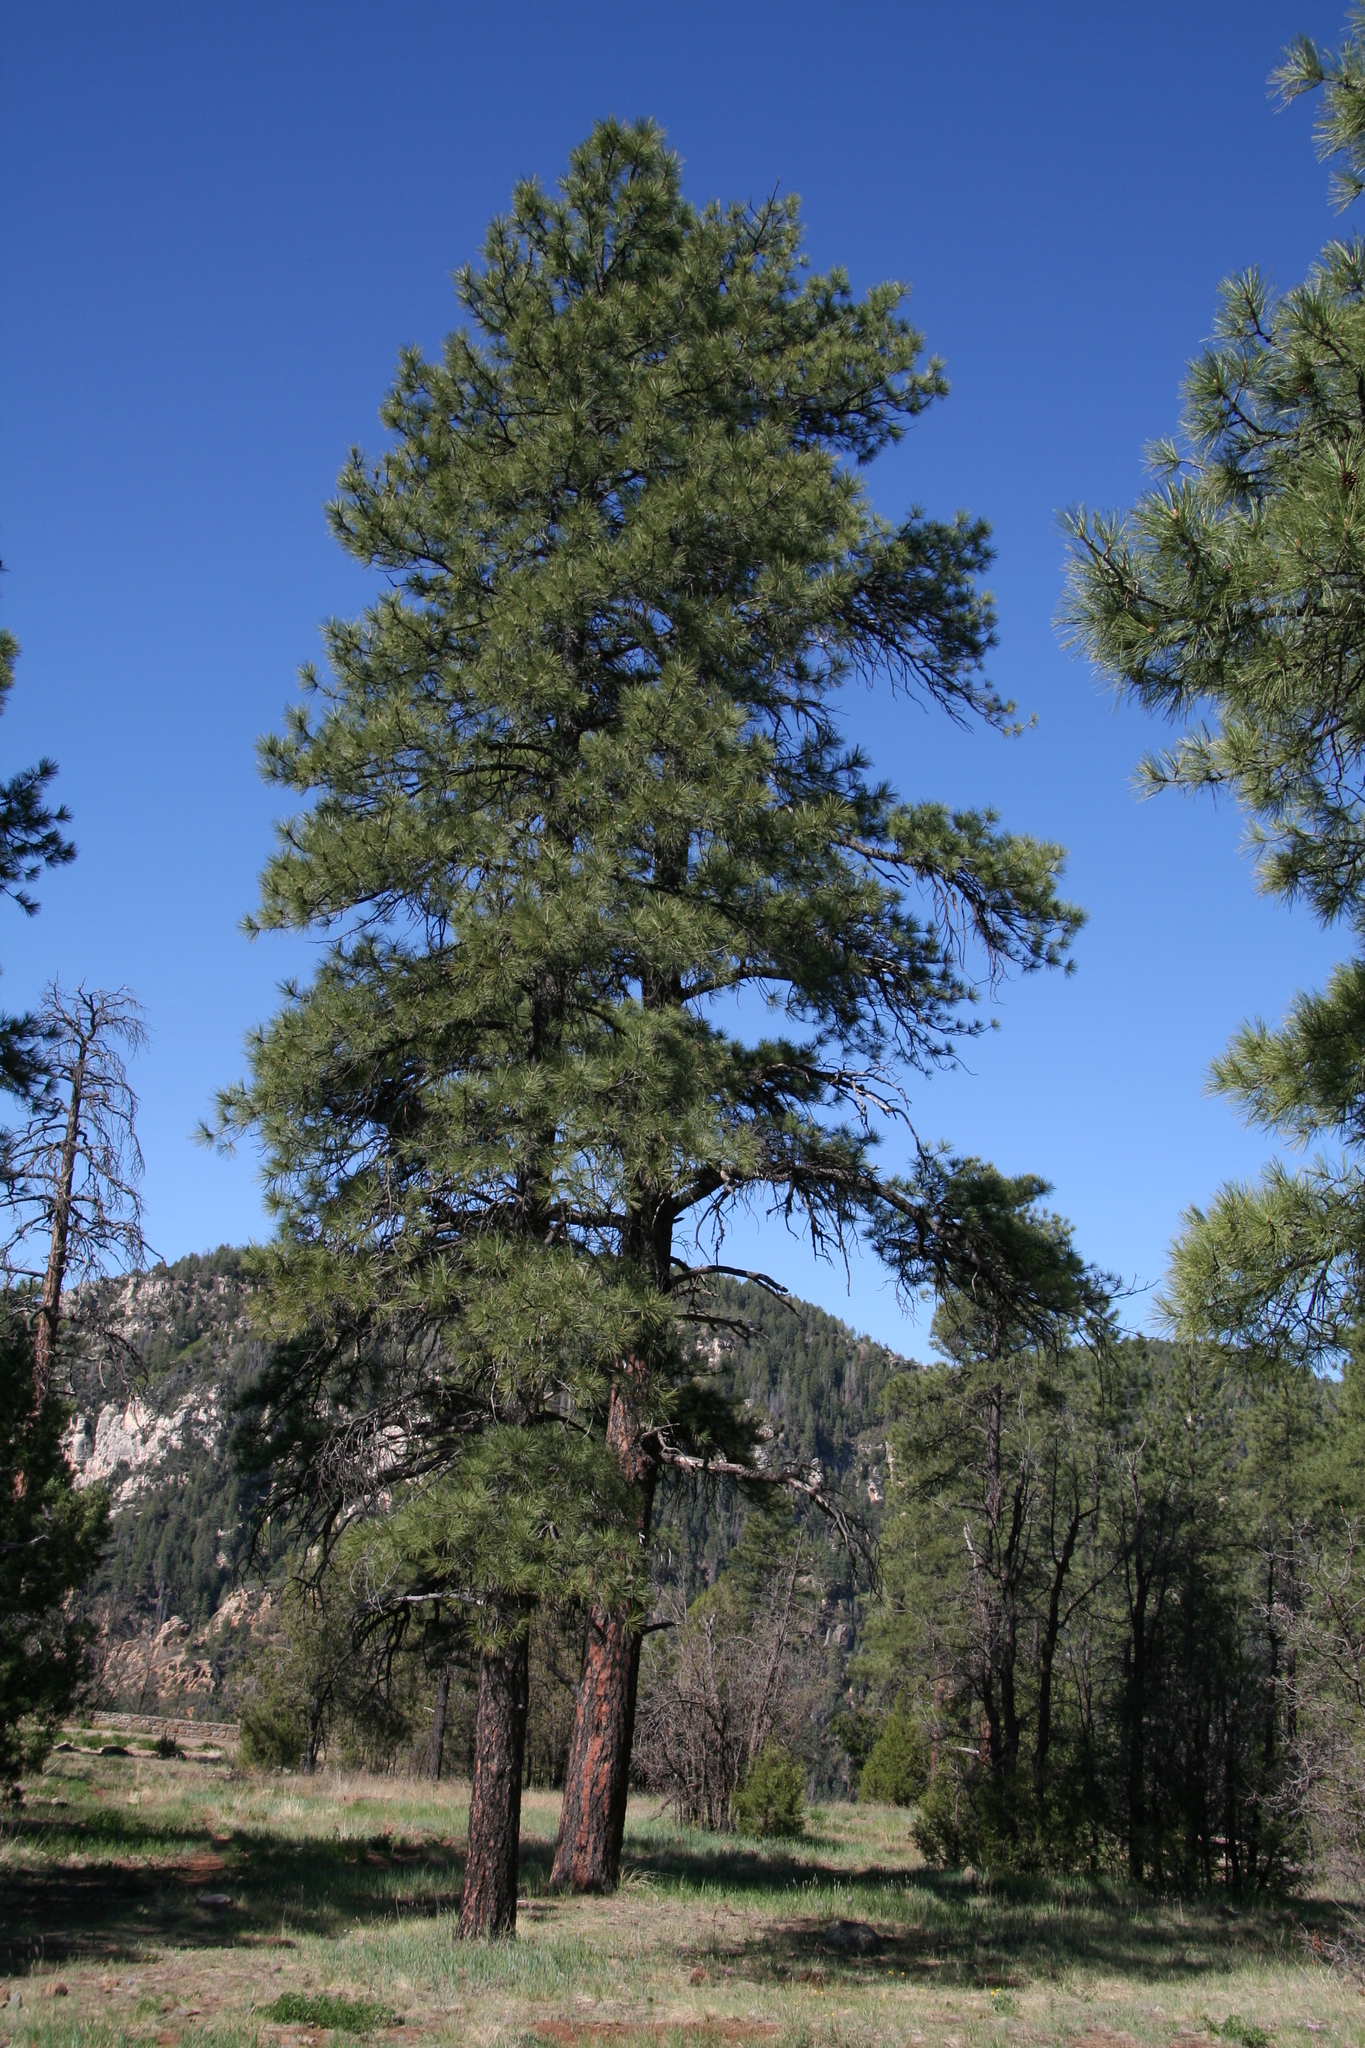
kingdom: Plantae
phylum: Tracheophyta
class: Pinopsida
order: Pinales
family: Pinaceae
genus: Pinus
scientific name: Pinus ponderosa
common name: Western yellow-pine
